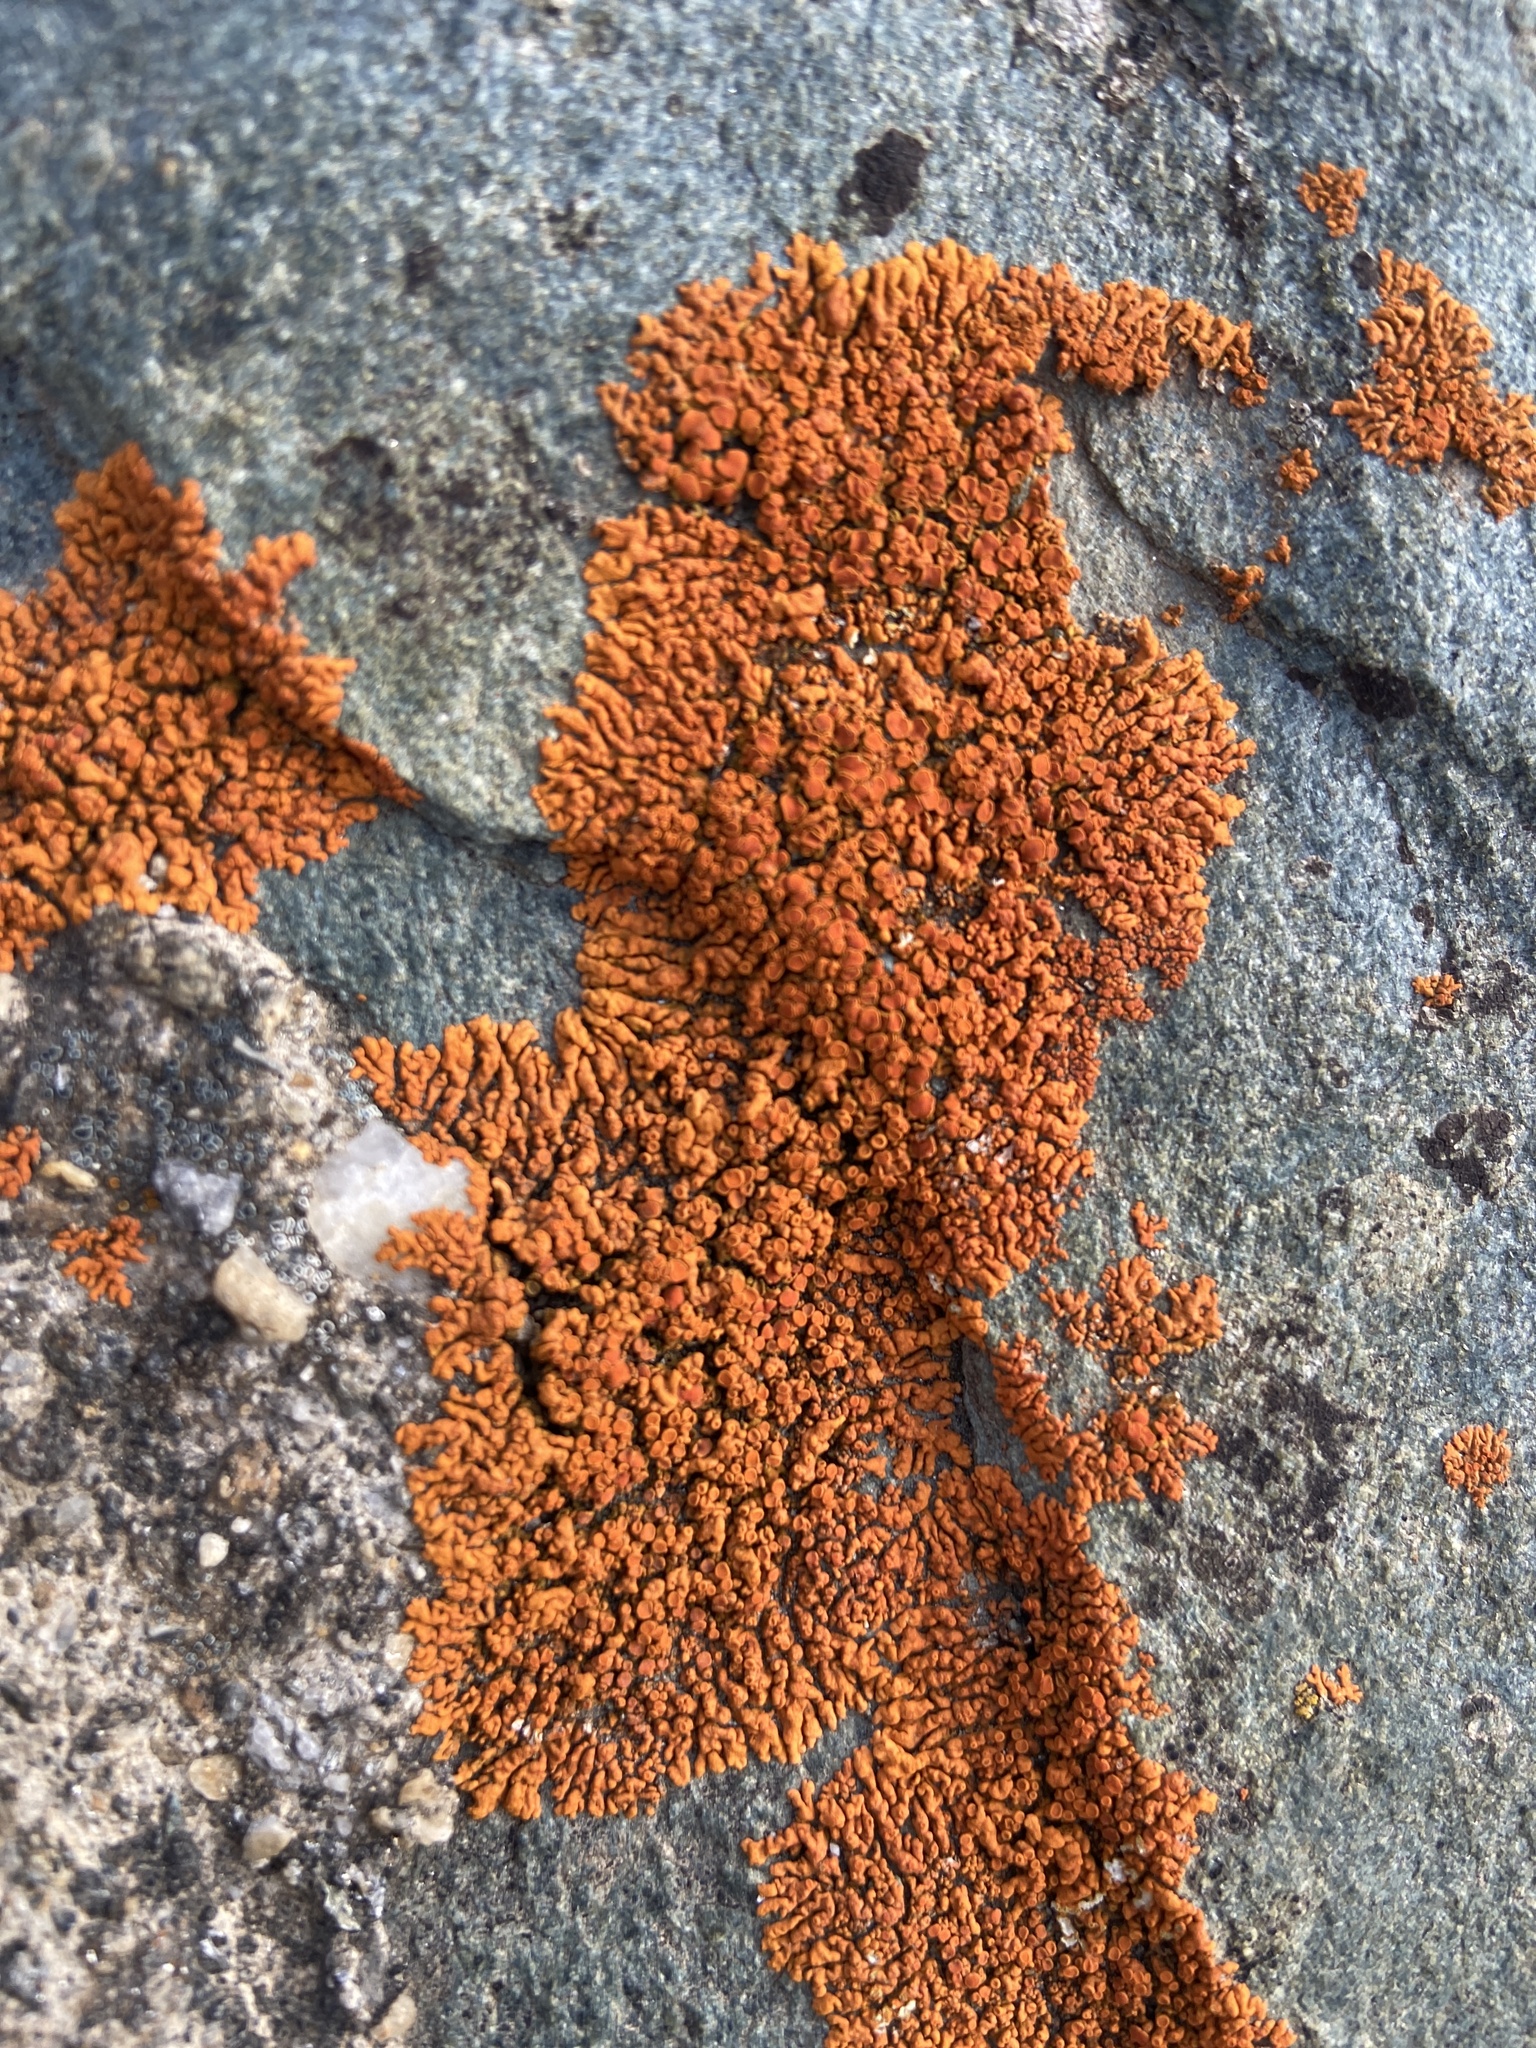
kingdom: Fungi
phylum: Ascomycota
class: Lecanoromycetes
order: Teloschistales
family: Teloschistaceae
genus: Xanthoria
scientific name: Xanthoria elegans
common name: Elegant sunburst lichen
